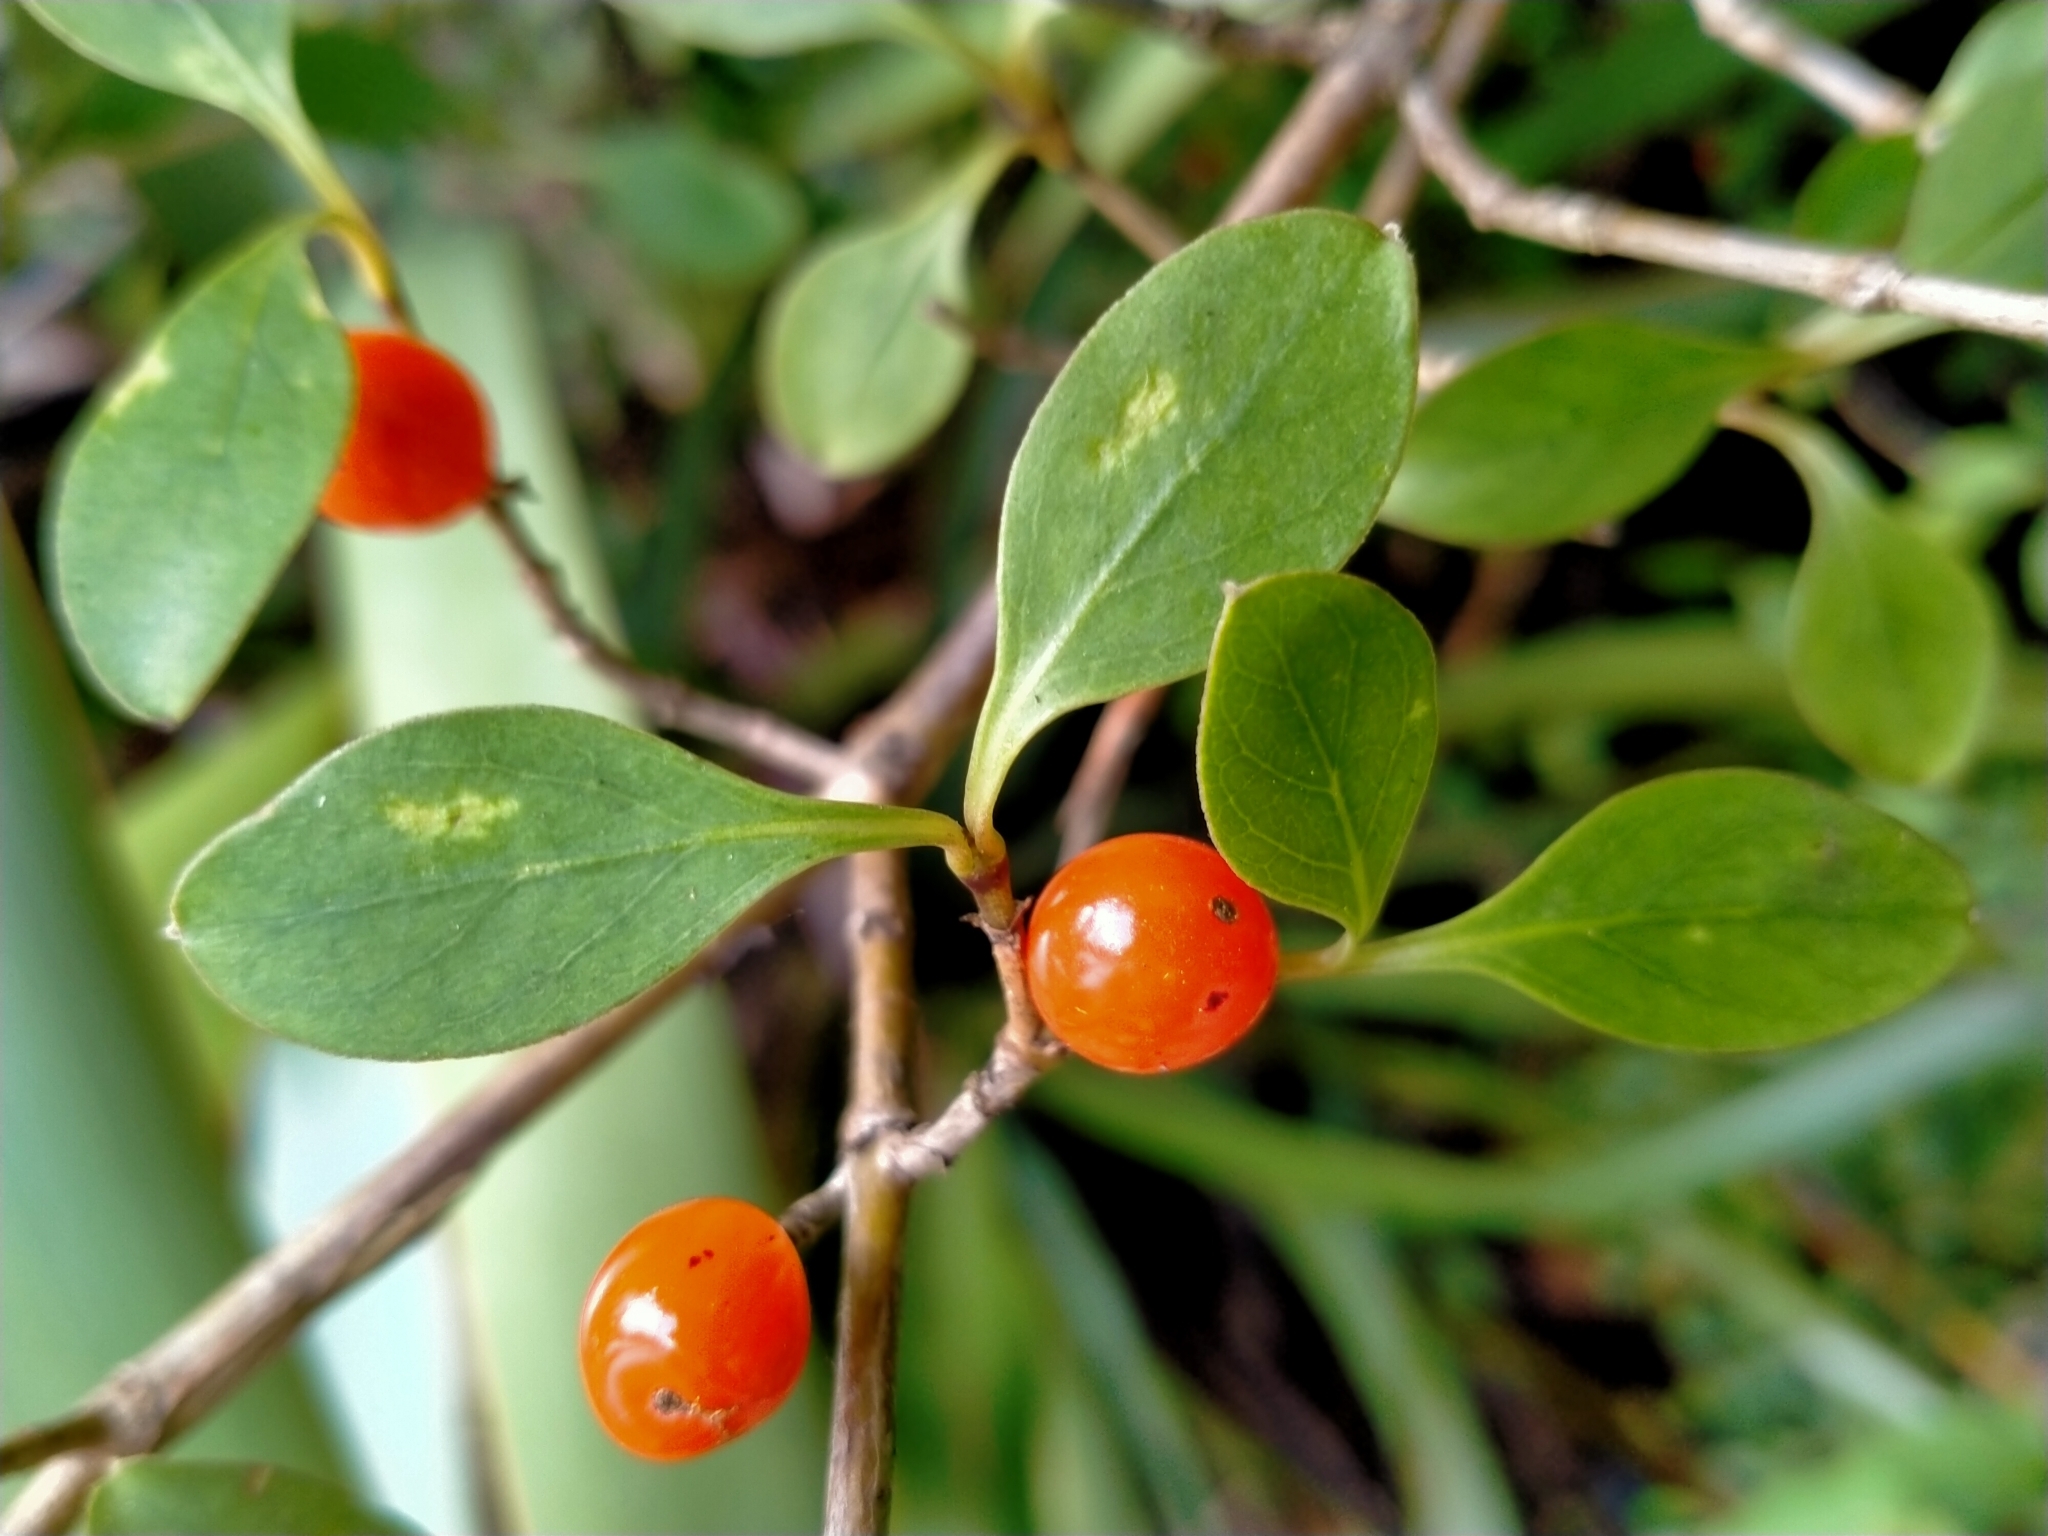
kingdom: Plantae
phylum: Tracheophyta
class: Magnoliopsida
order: Gentianales
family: Rubiaceae
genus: Coprosma
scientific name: Coprosma foetidissima
